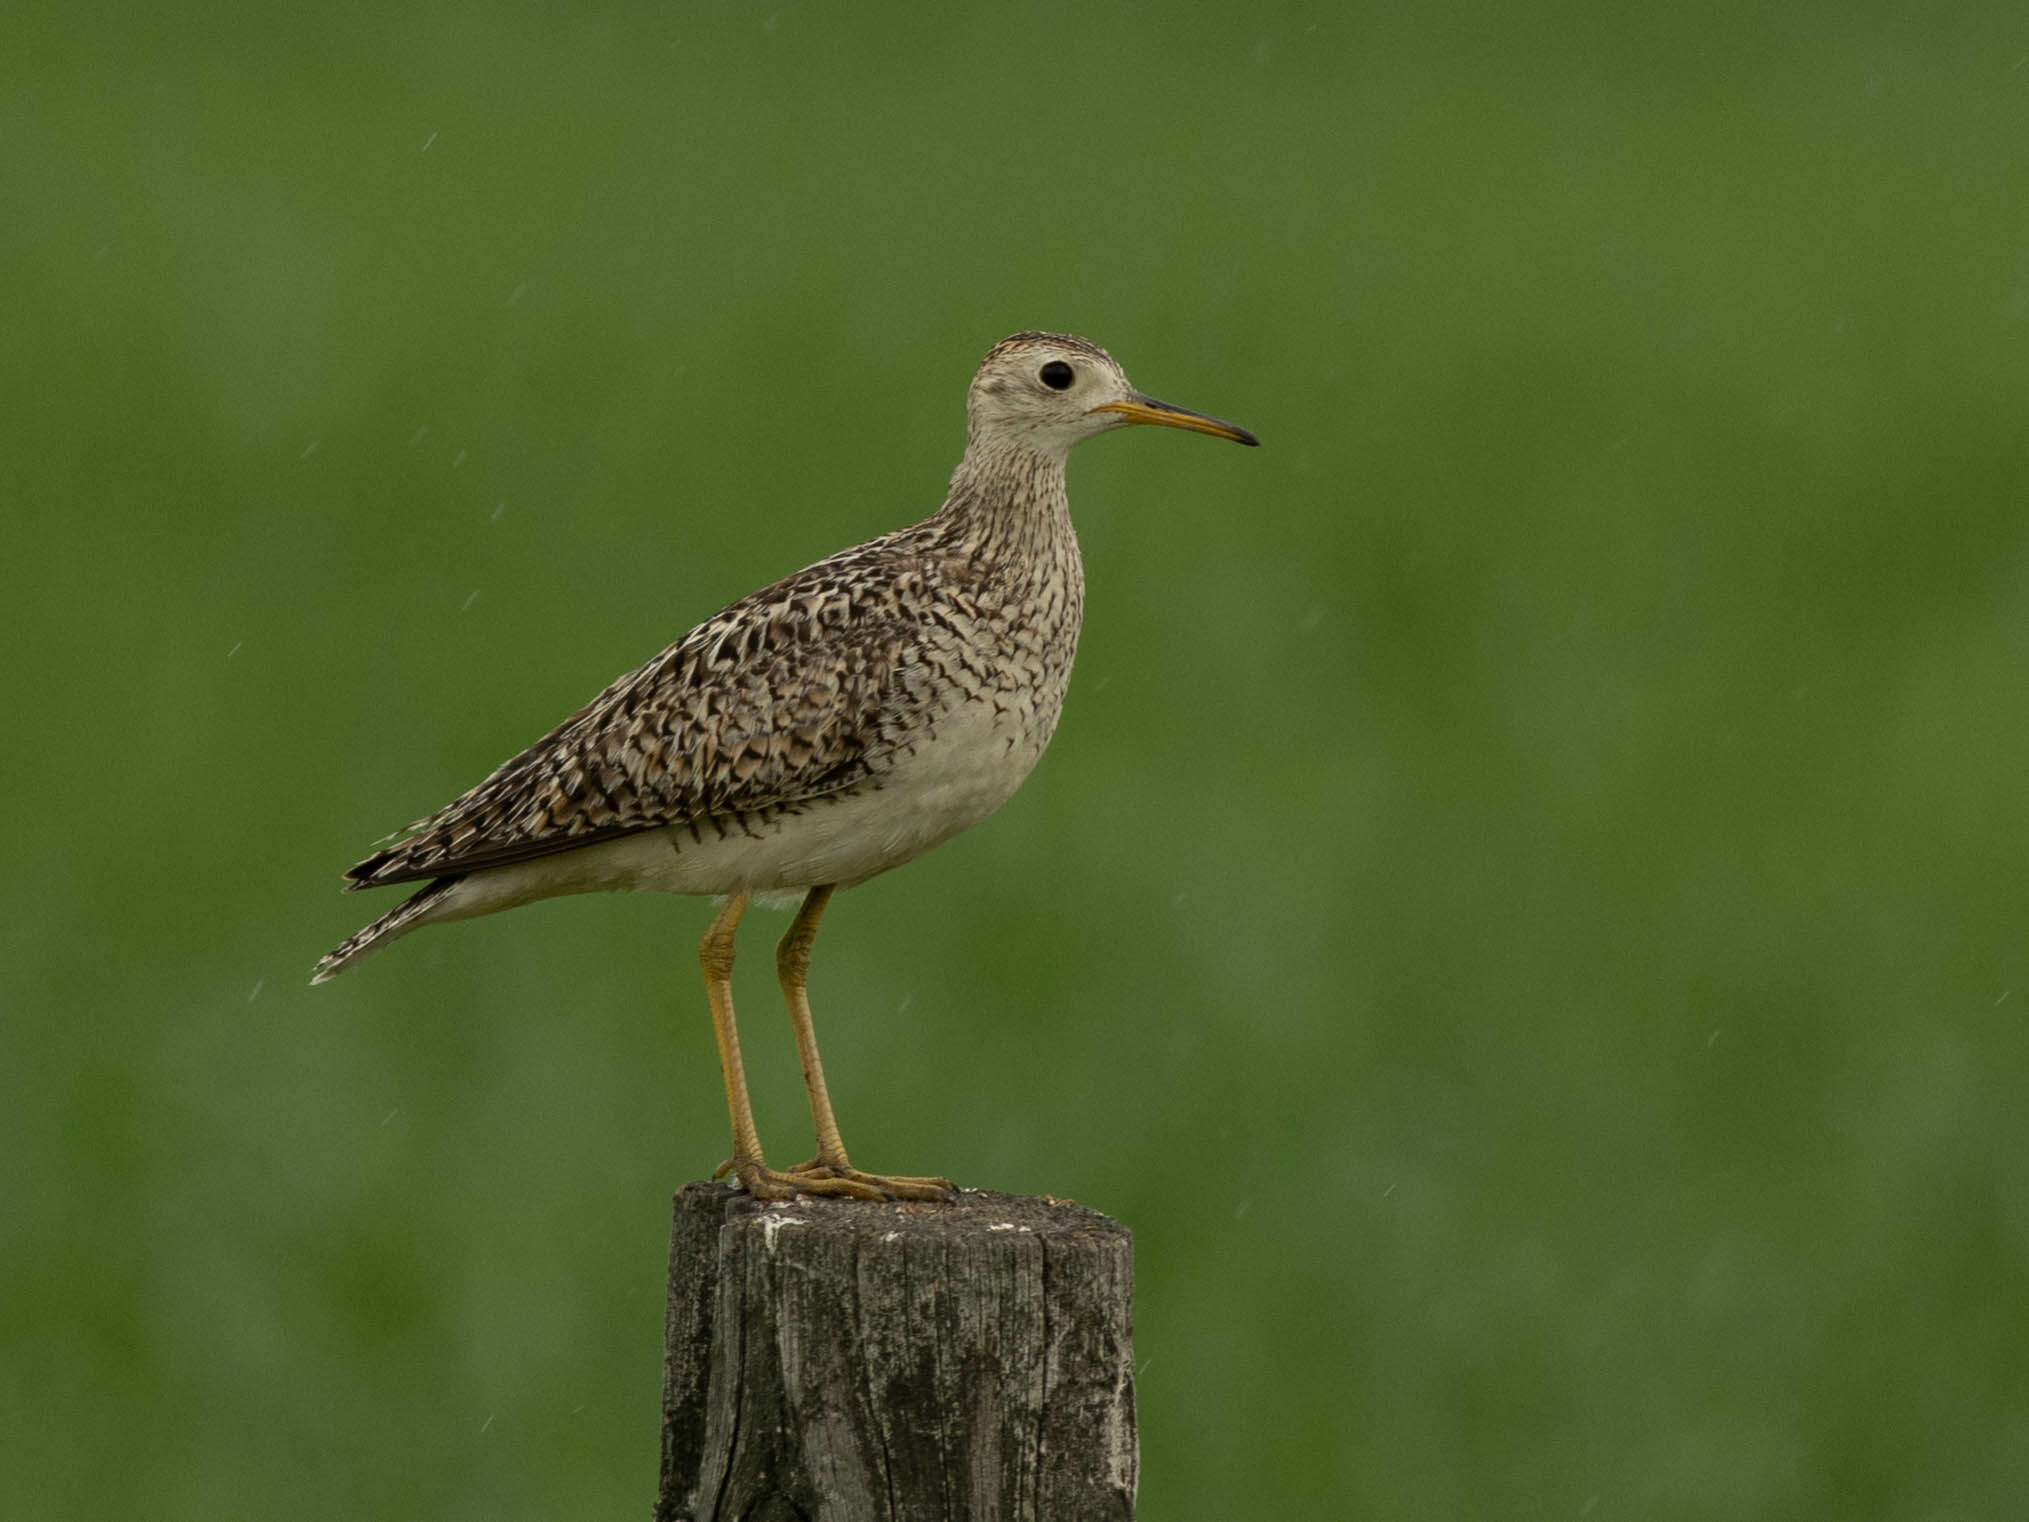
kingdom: Animalia
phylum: Chordata
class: Aves
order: Charadriiformes
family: Scolopacidae
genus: Bartramia
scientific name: Bartramia longicauda
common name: Upland sandpiper
